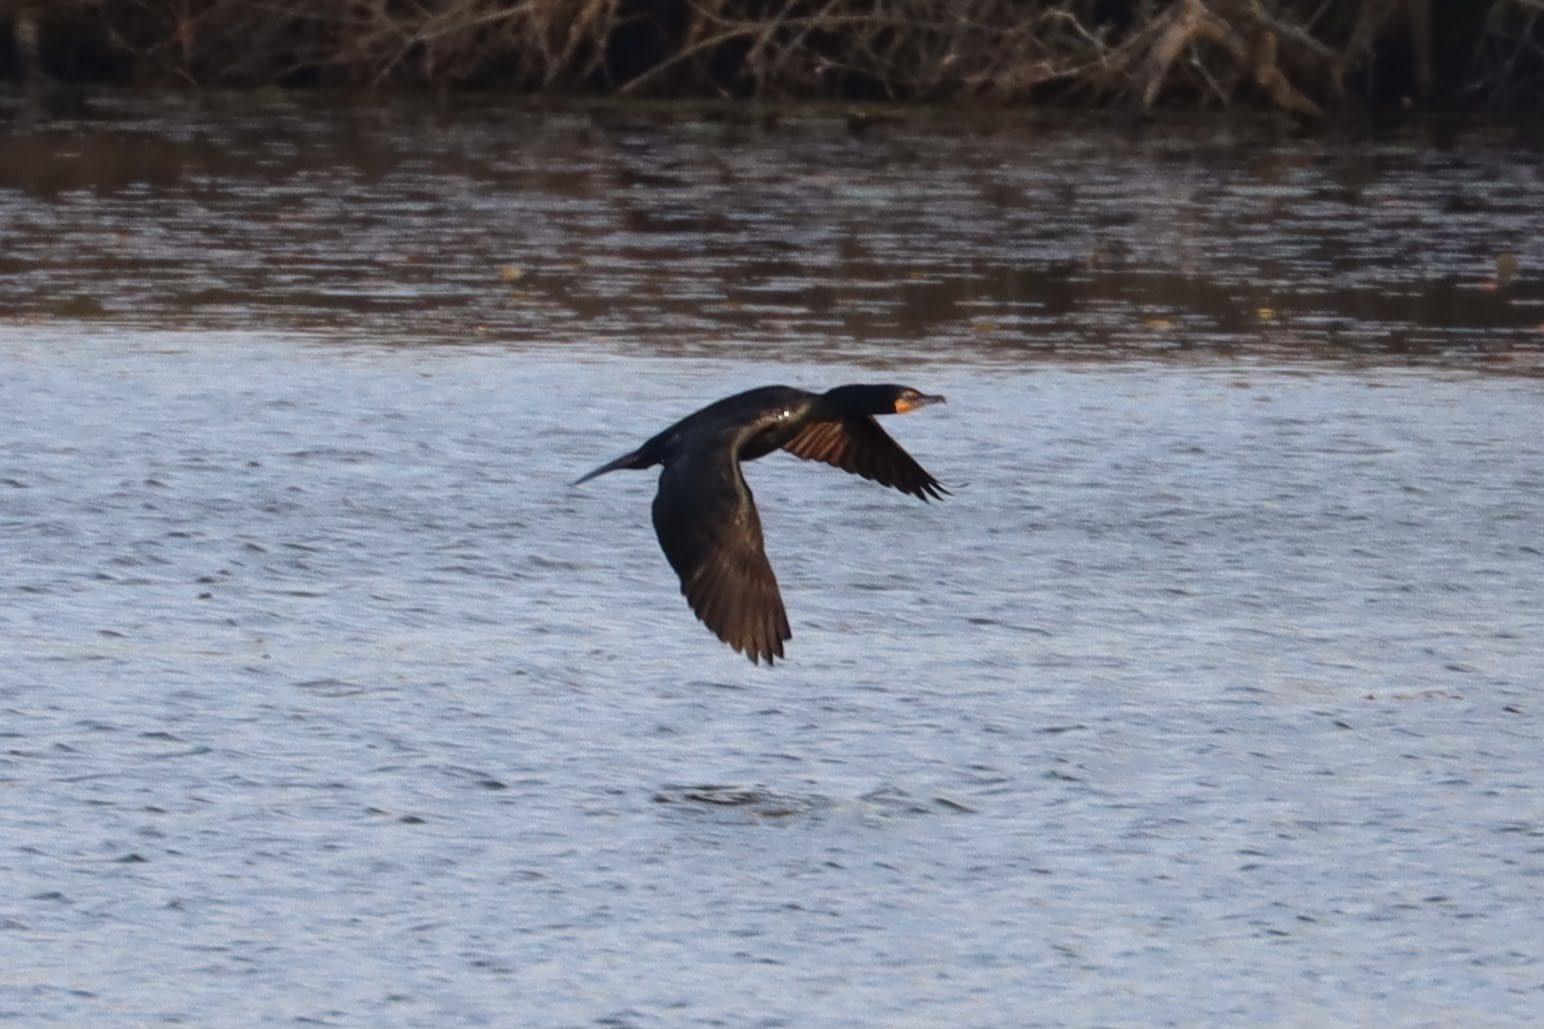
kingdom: Animalia
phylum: Chordata
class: Aves
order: Suliformes
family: Phalacrocoracidae
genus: Phalacrocorax
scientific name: Phalacrocorax auritus
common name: Double-crested cormorant
